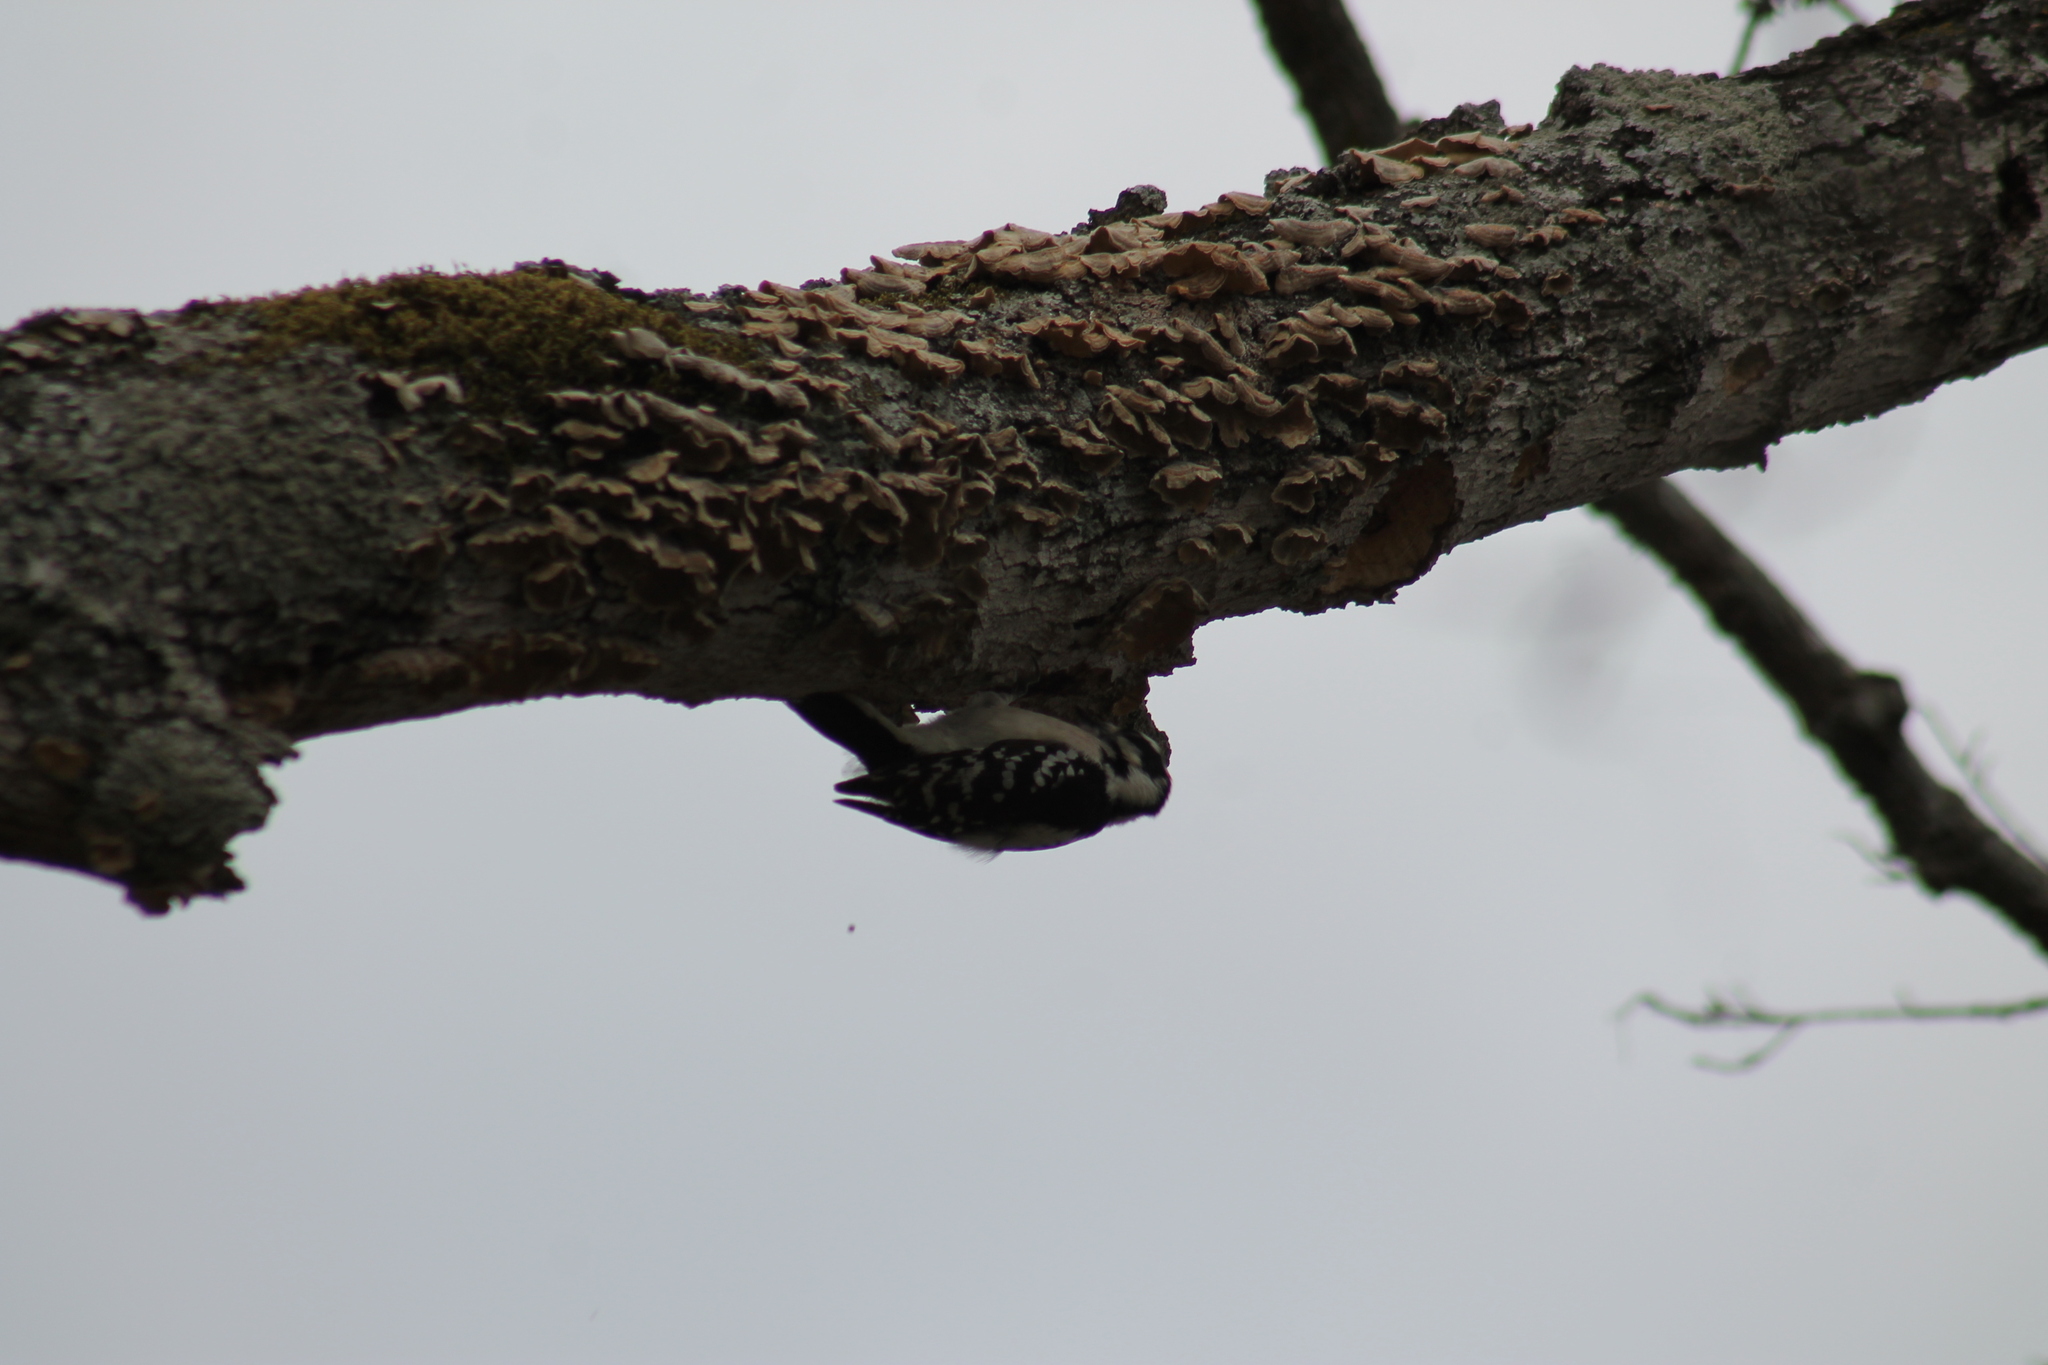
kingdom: Animalia
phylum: Chordata
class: Aves
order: Piciformes
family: Picidae
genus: Dryobates
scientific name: Dryobates pubescens
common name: Downy woodpecker
